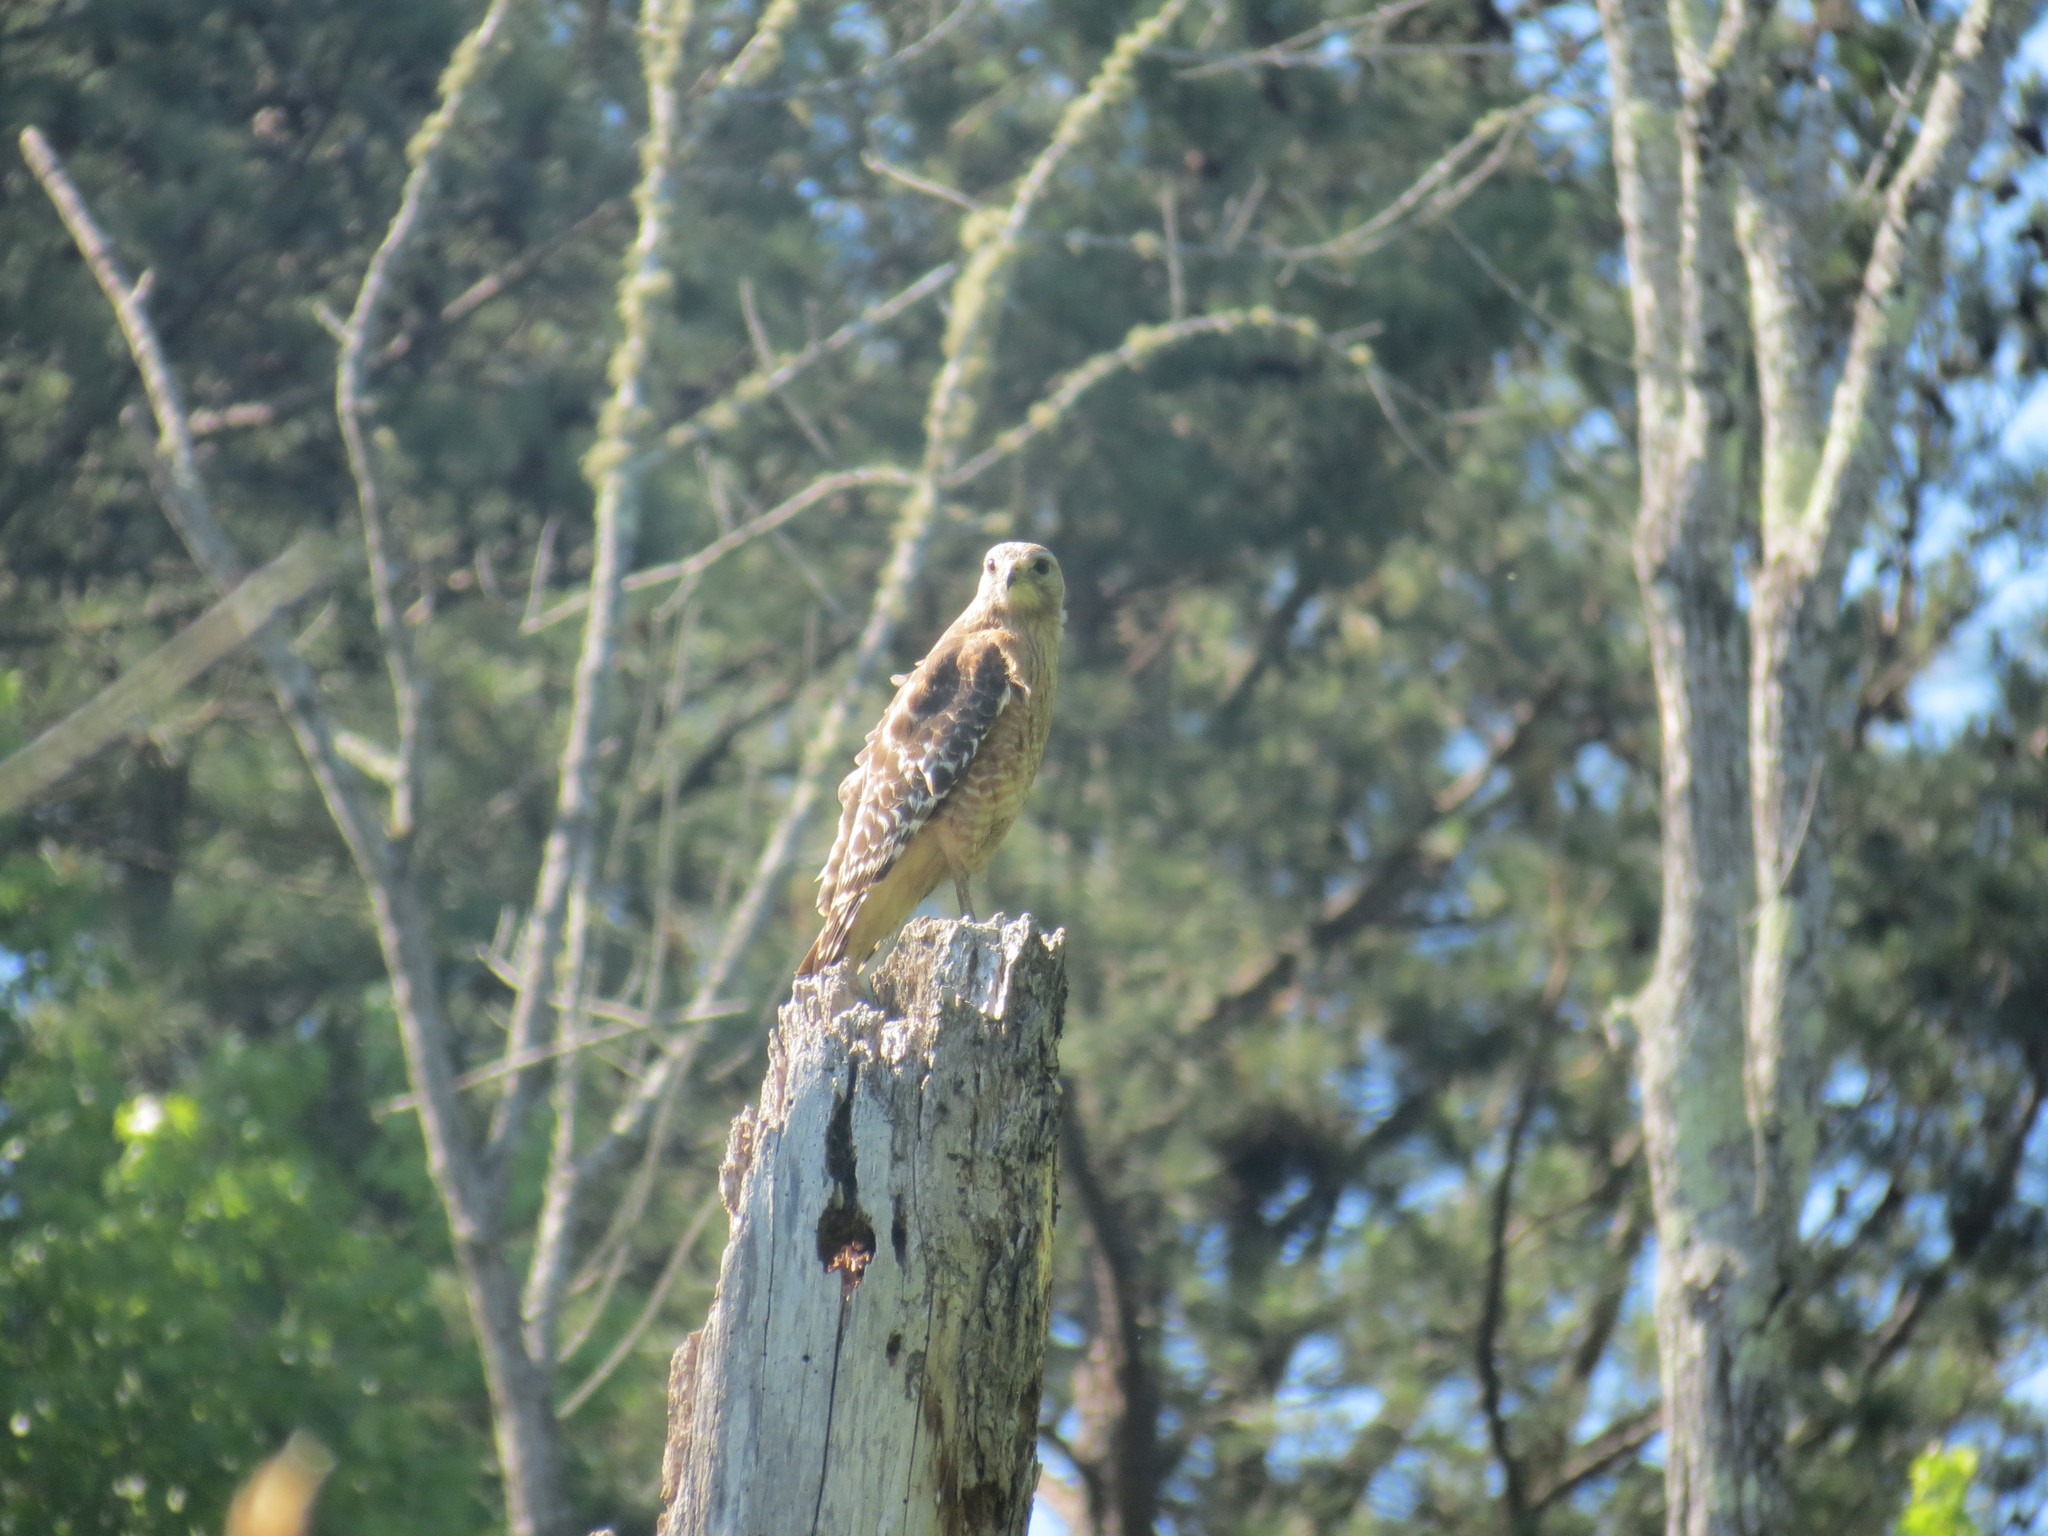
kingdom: Animalia
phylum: Chordata
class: Aves
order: Accipitriformes
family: Accipitridae
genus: Buteo
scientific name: Buteo lineatus
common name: Red-shouldered hawk
